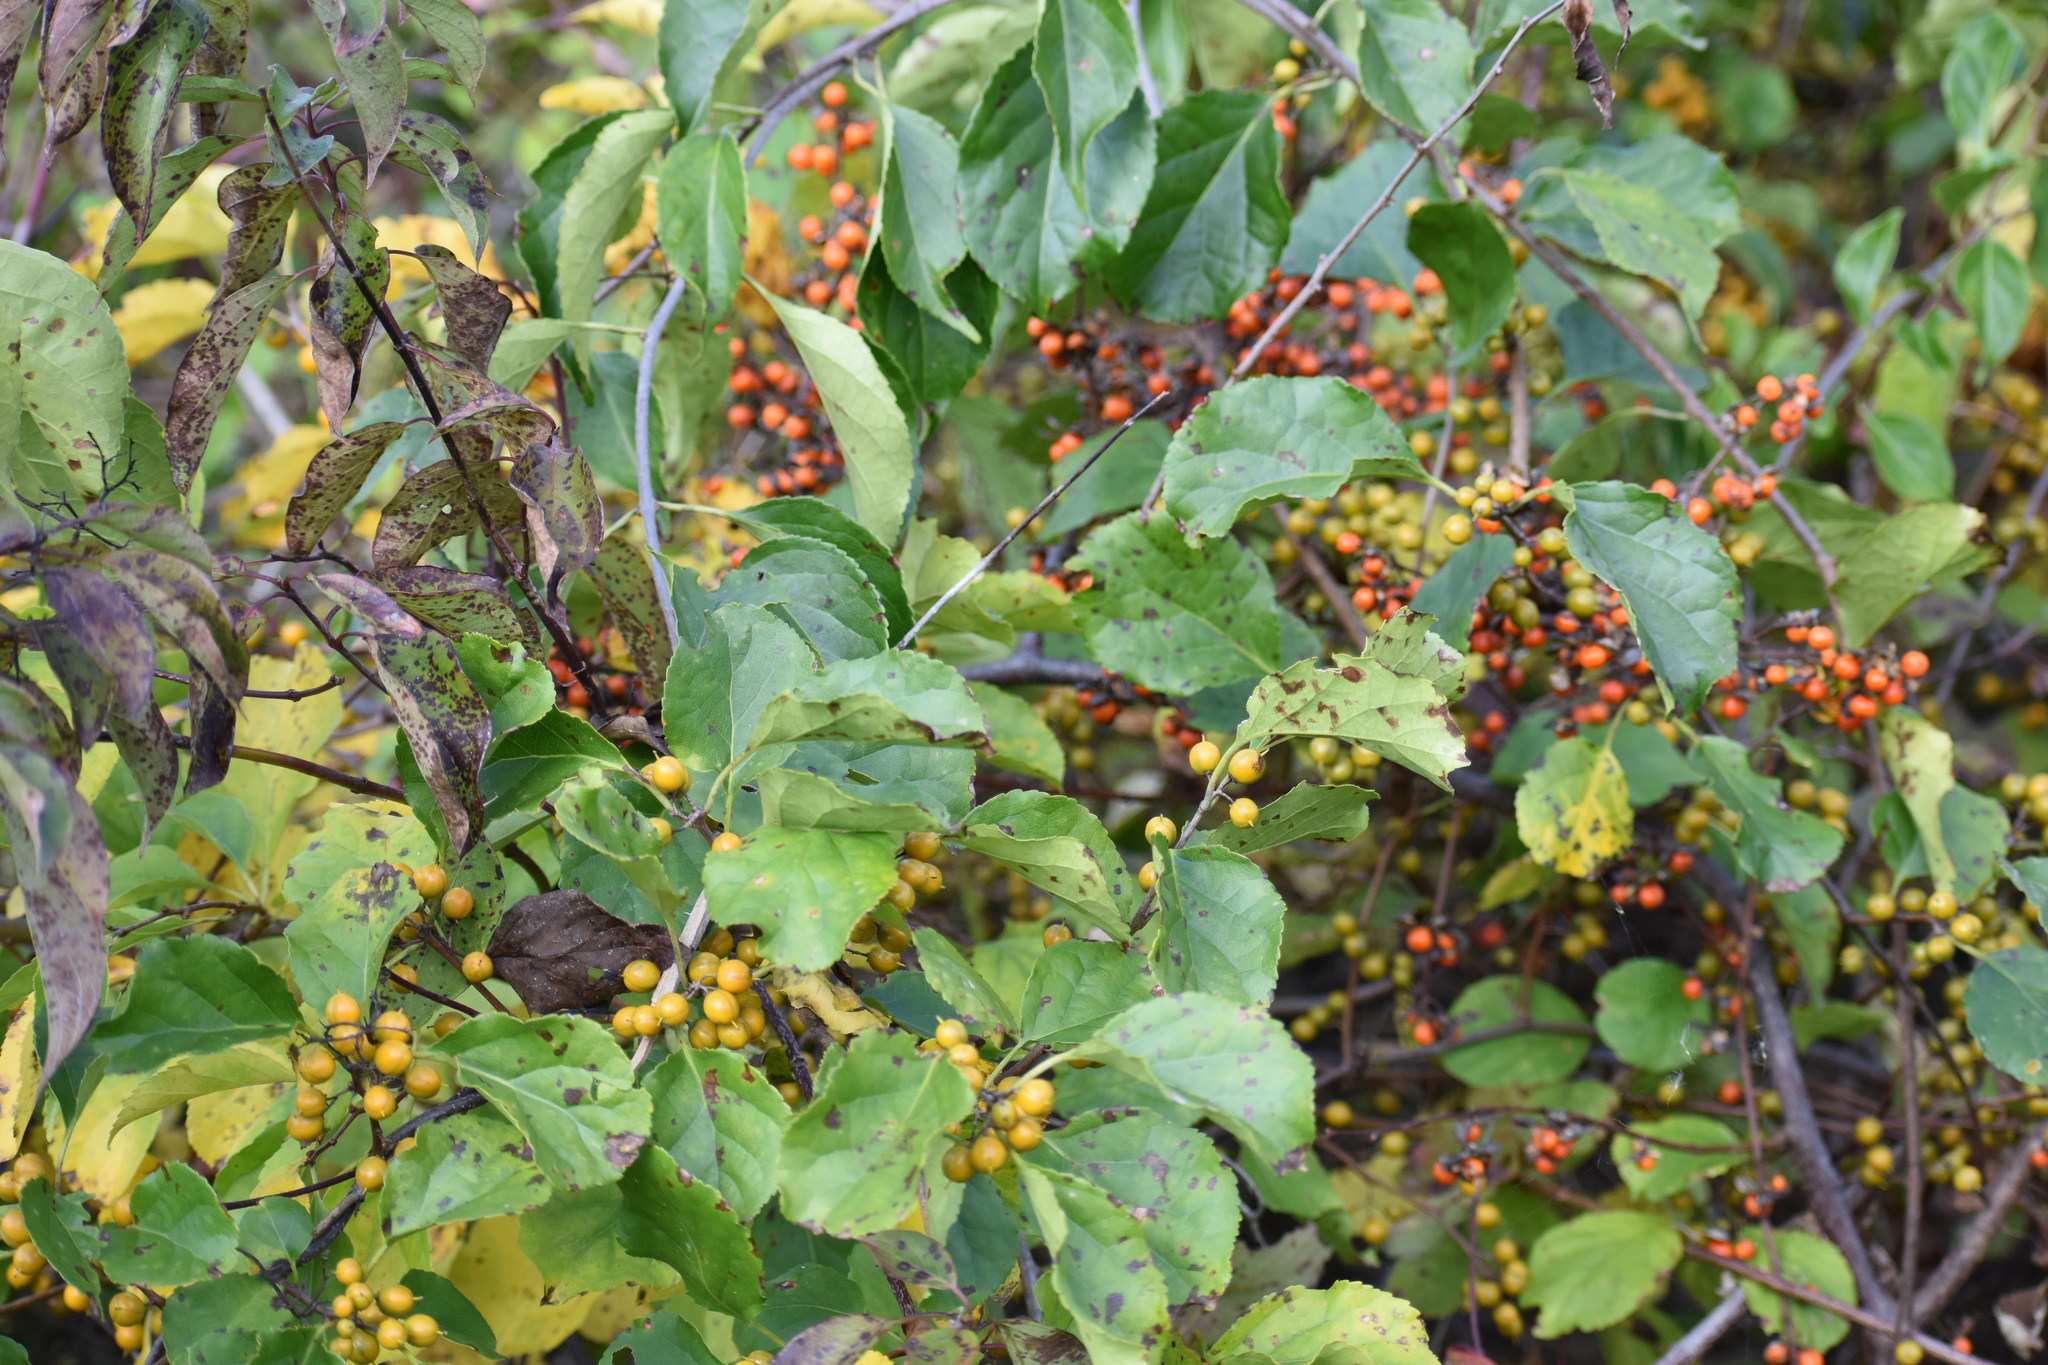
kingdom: Plantae
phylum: Tracheophyta
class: Magnoliopsida
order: Celastrales
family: Celastraceae
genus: Celastrus
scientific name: Celastrus orbiculatus
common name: Oriental bittersweet
